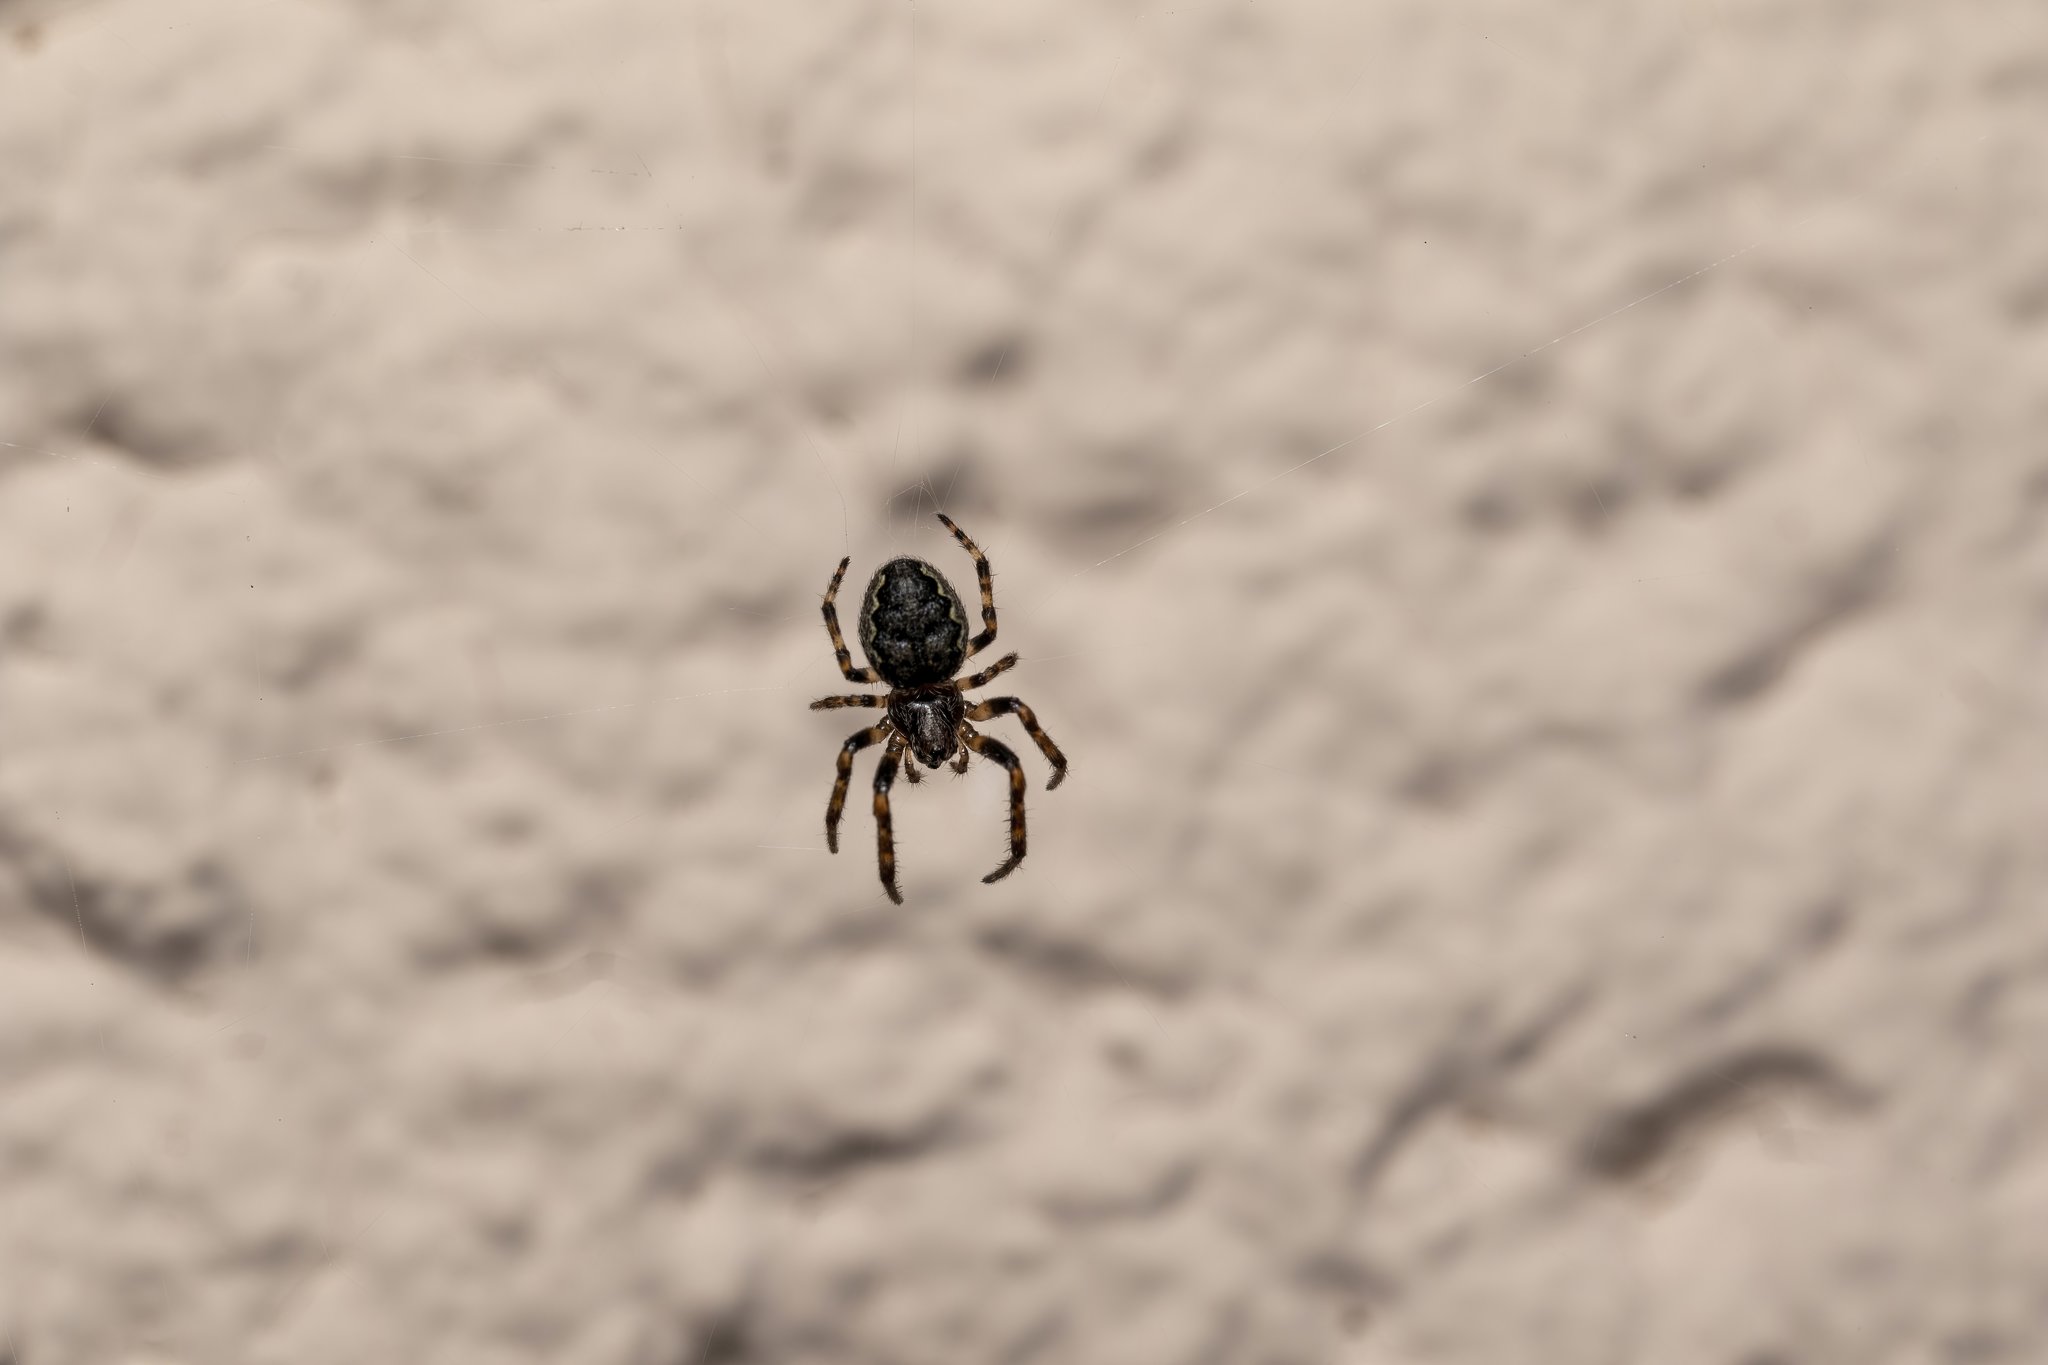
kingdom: Animalia
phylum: Arthropoda
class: Arachnida
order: Araneae
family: Araneidae
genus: Nuctenea
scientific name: Nuctenea umbratica
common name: Toad spider
